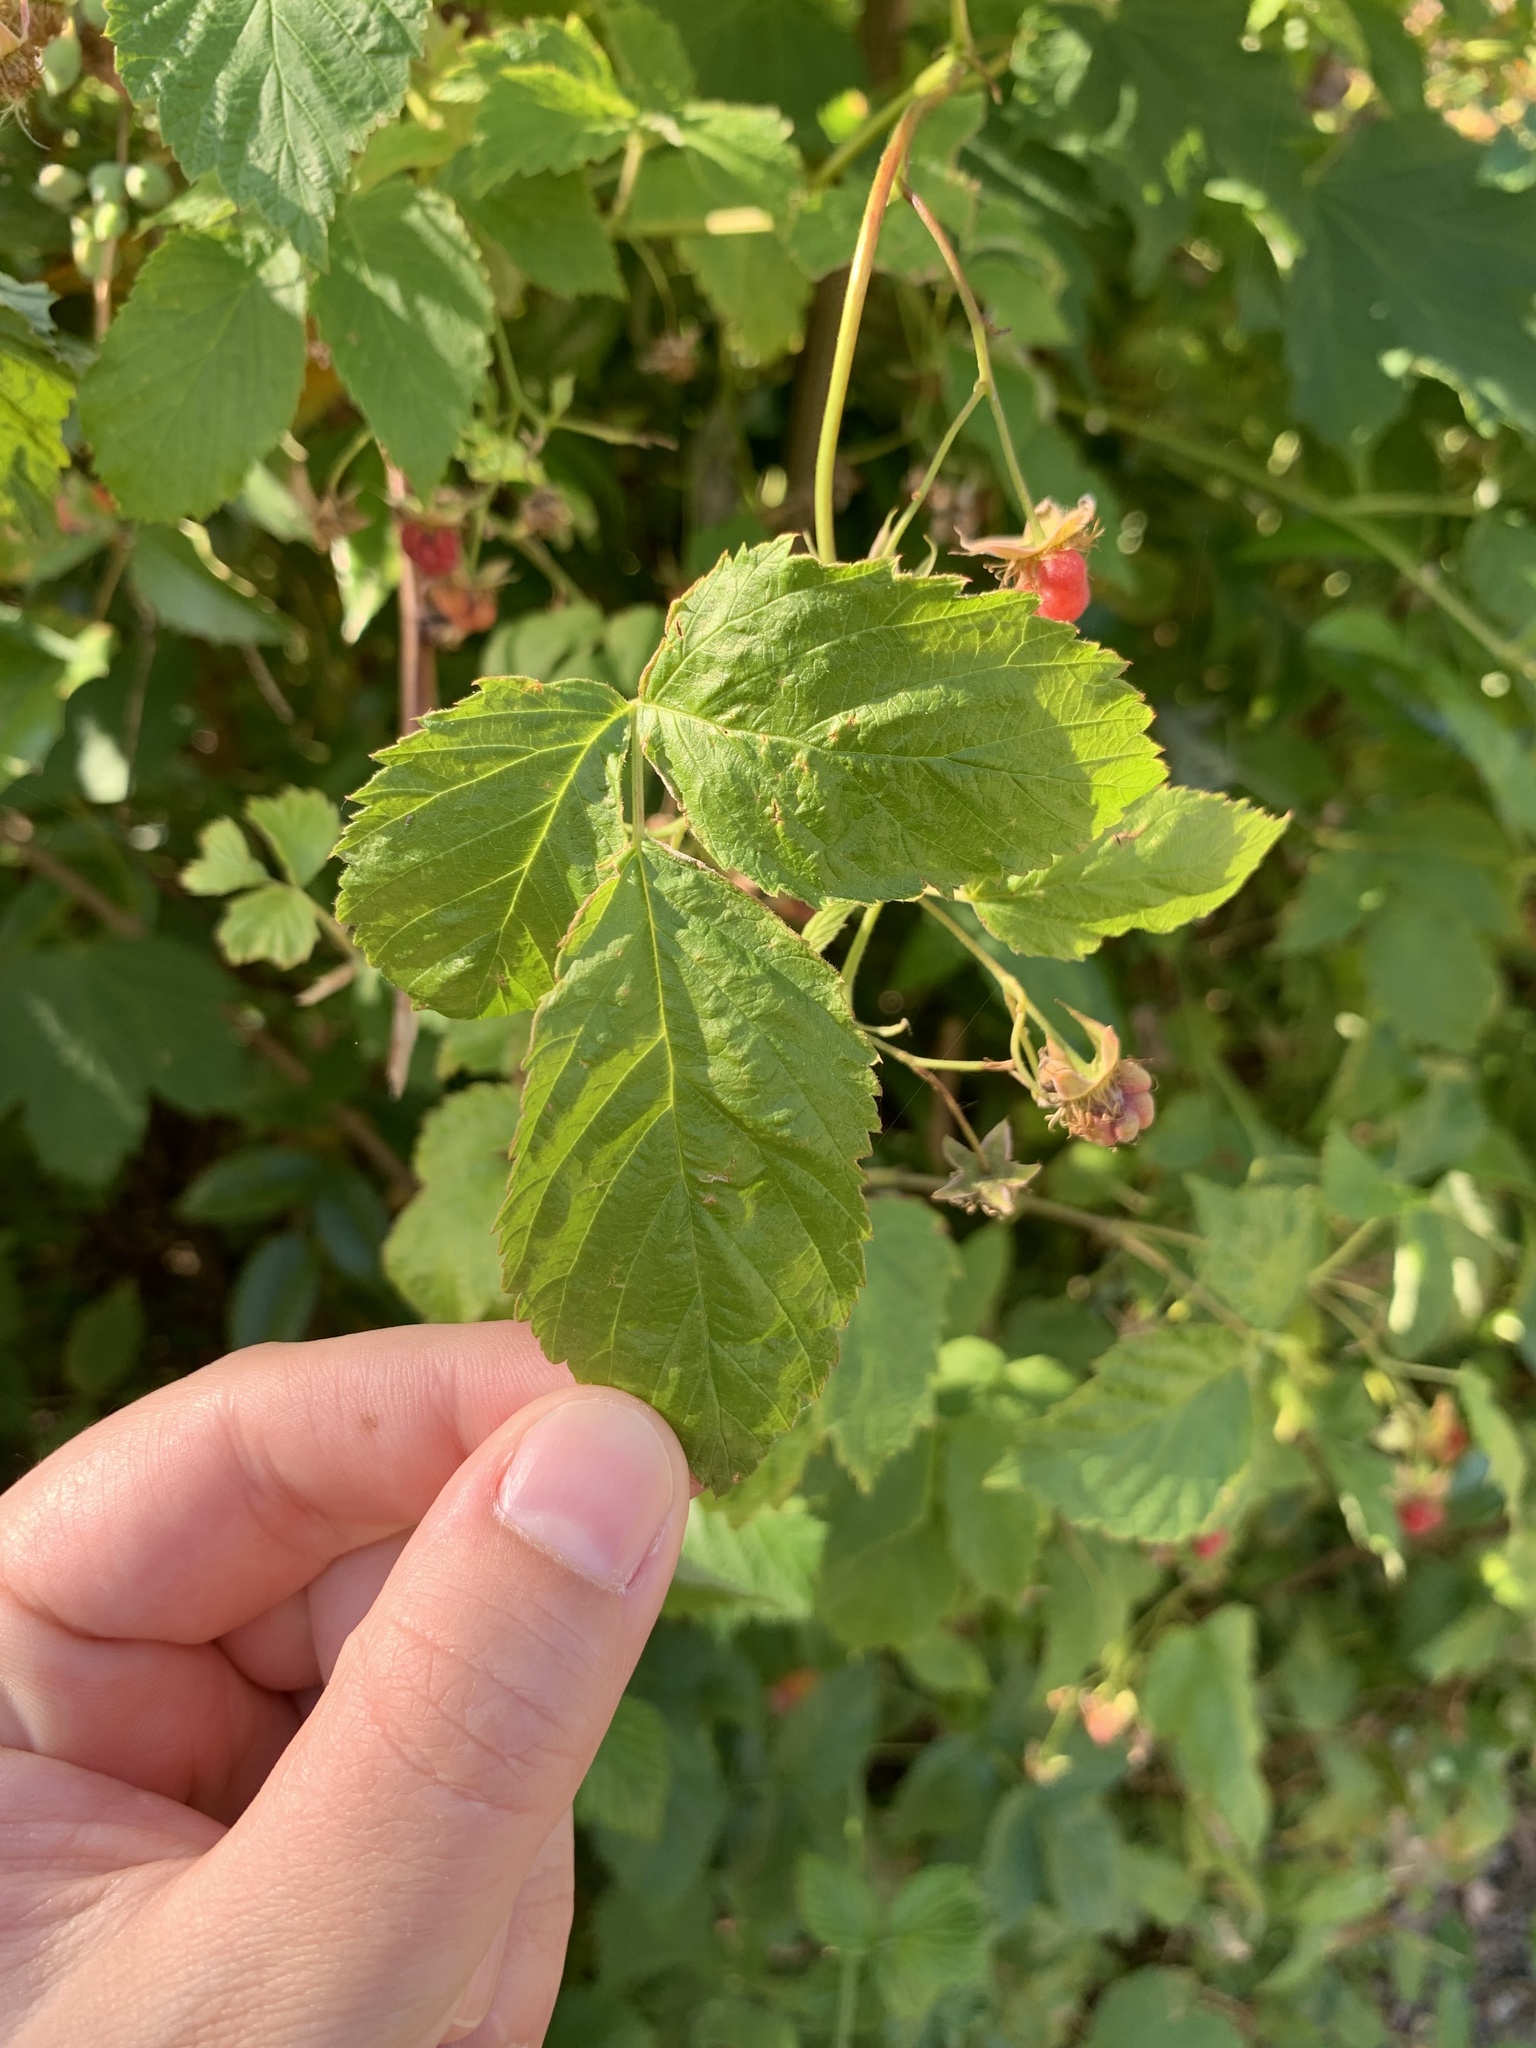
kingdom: Plantae
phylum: Tracheophyta
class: Magnoliopsida
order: Rosales
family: Rosaceae
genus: Rubus
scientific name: Rubus idaeus
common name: Raspberry
